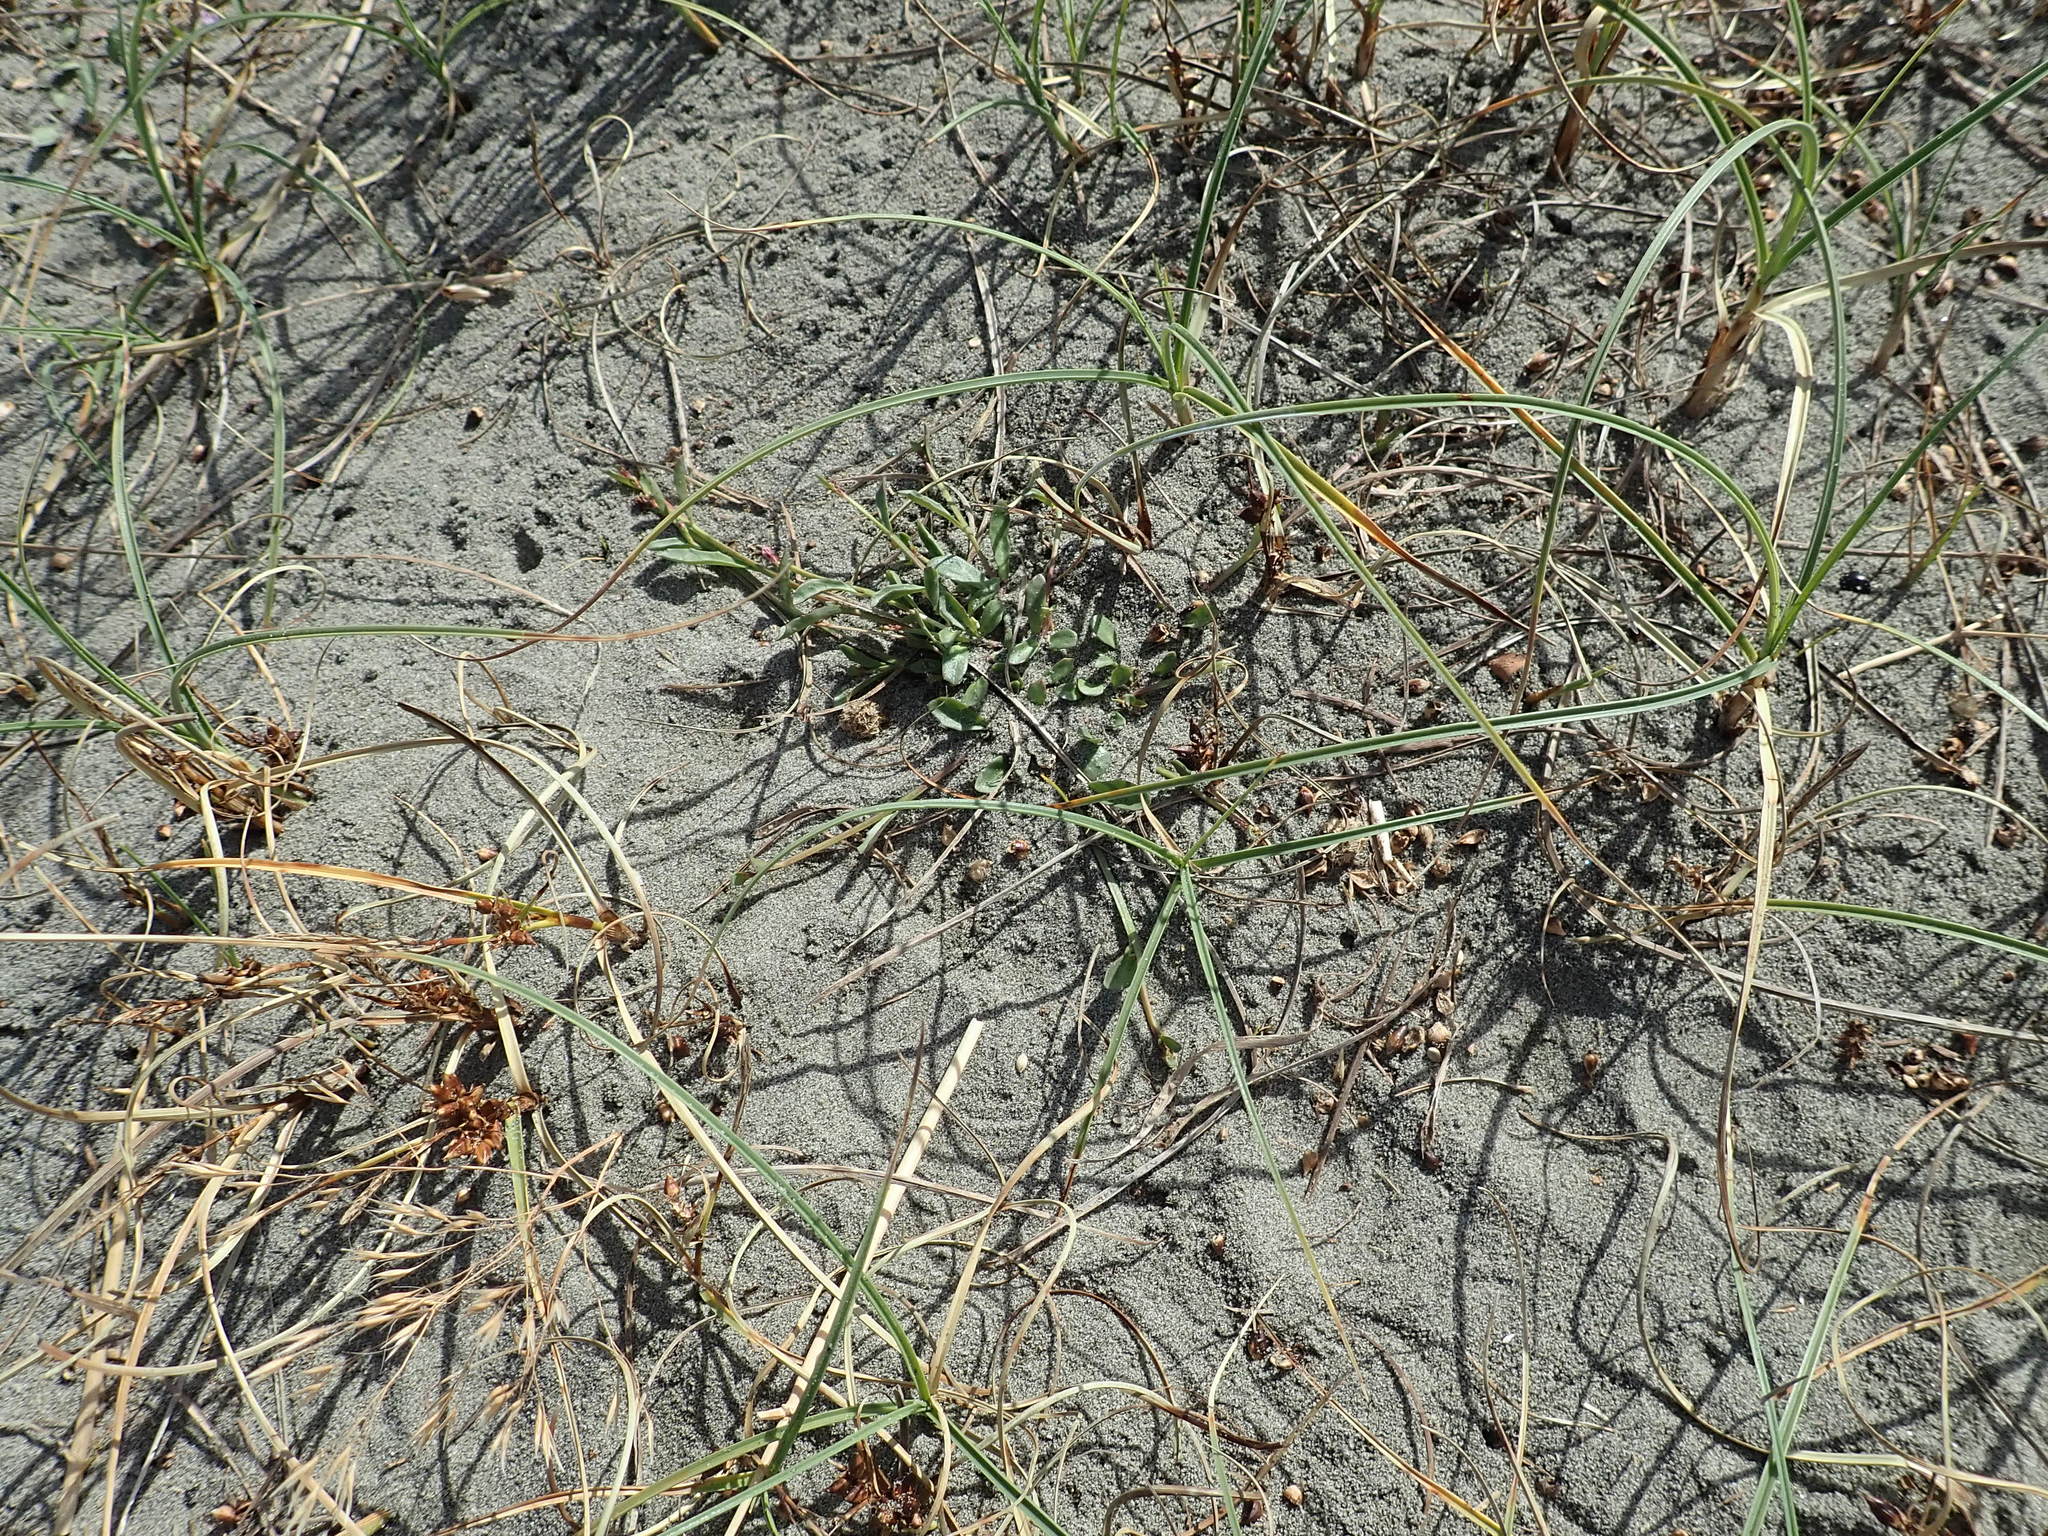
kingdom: Plantae
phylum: Tracheophyta
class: Magnoliopsida
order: Asterales
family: Campanulaceae
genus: Lobelia
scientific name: Lobelia anceps
